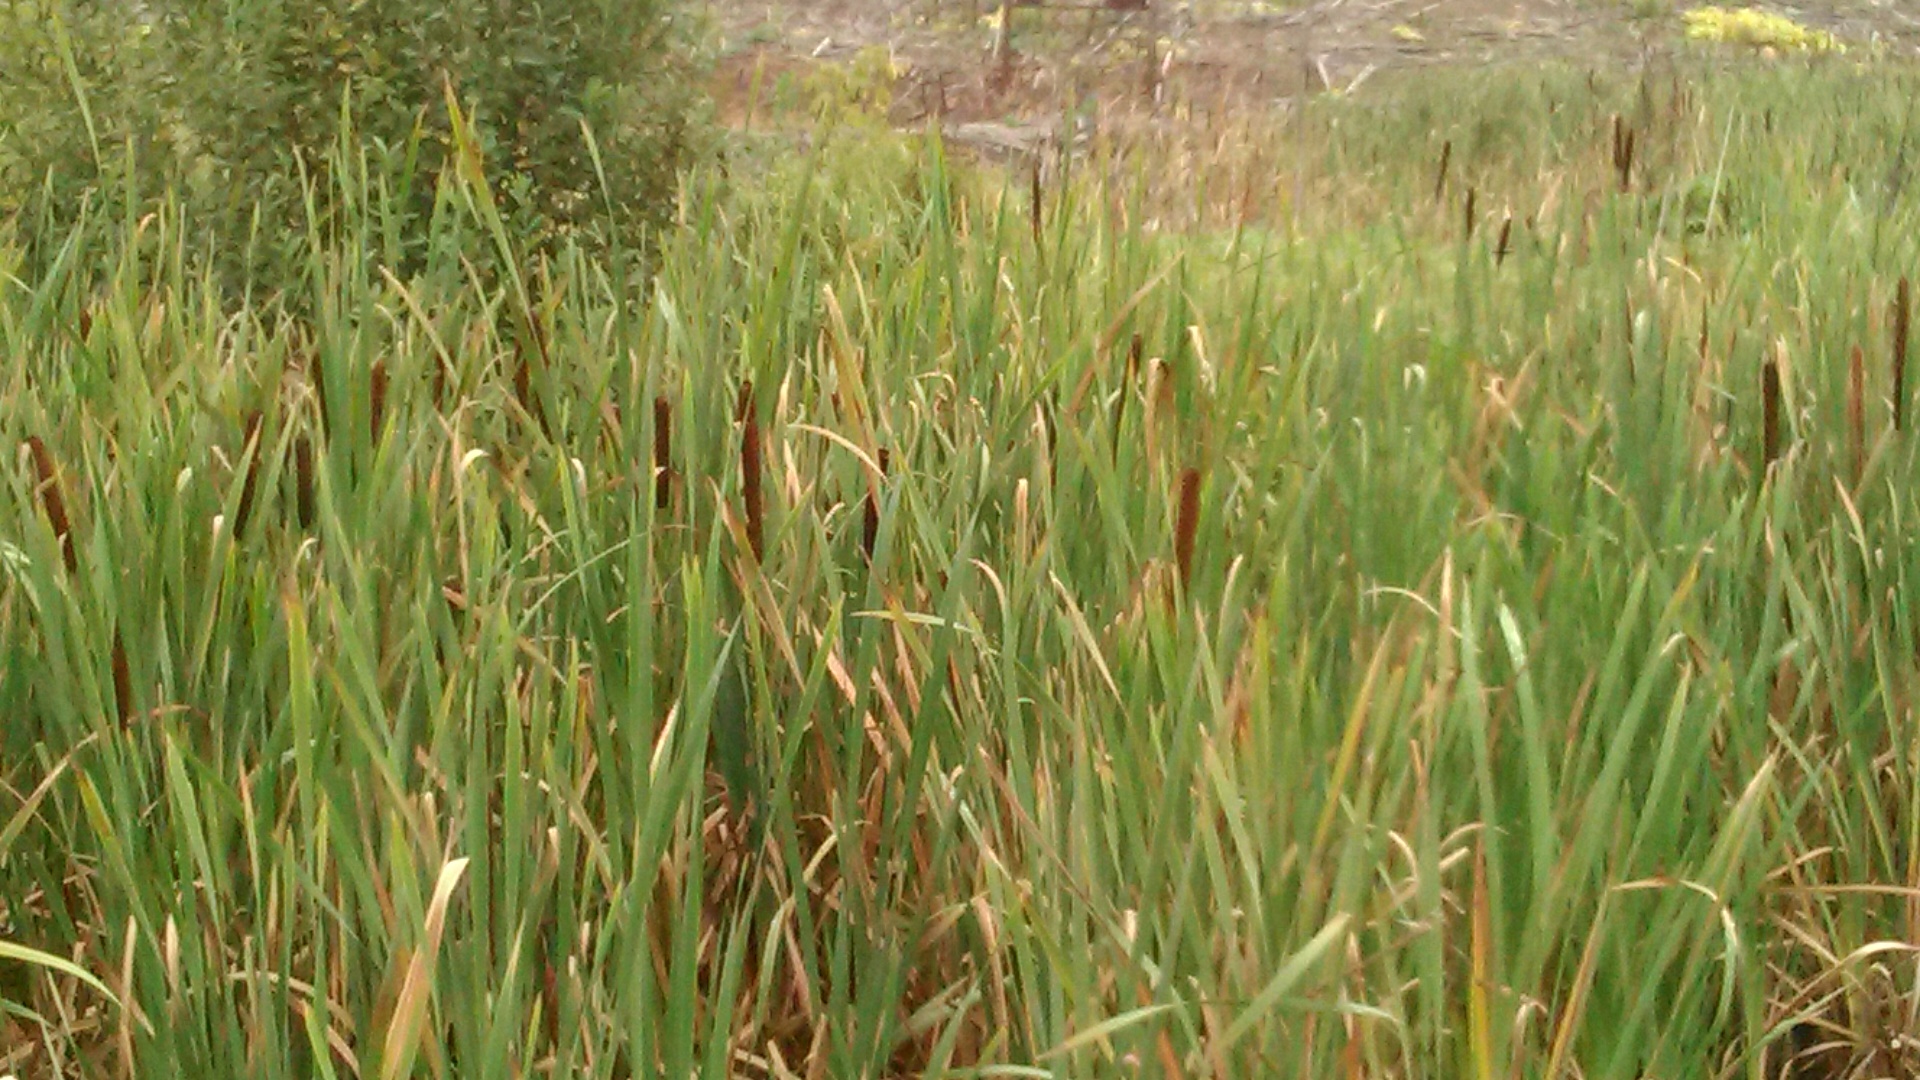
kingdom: Plantae
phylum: Tracheophyta
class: Liliopsida
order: Poales
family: Typhaceae
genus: Typha
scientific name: Typha latifolia
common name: Broadleaf cattail
